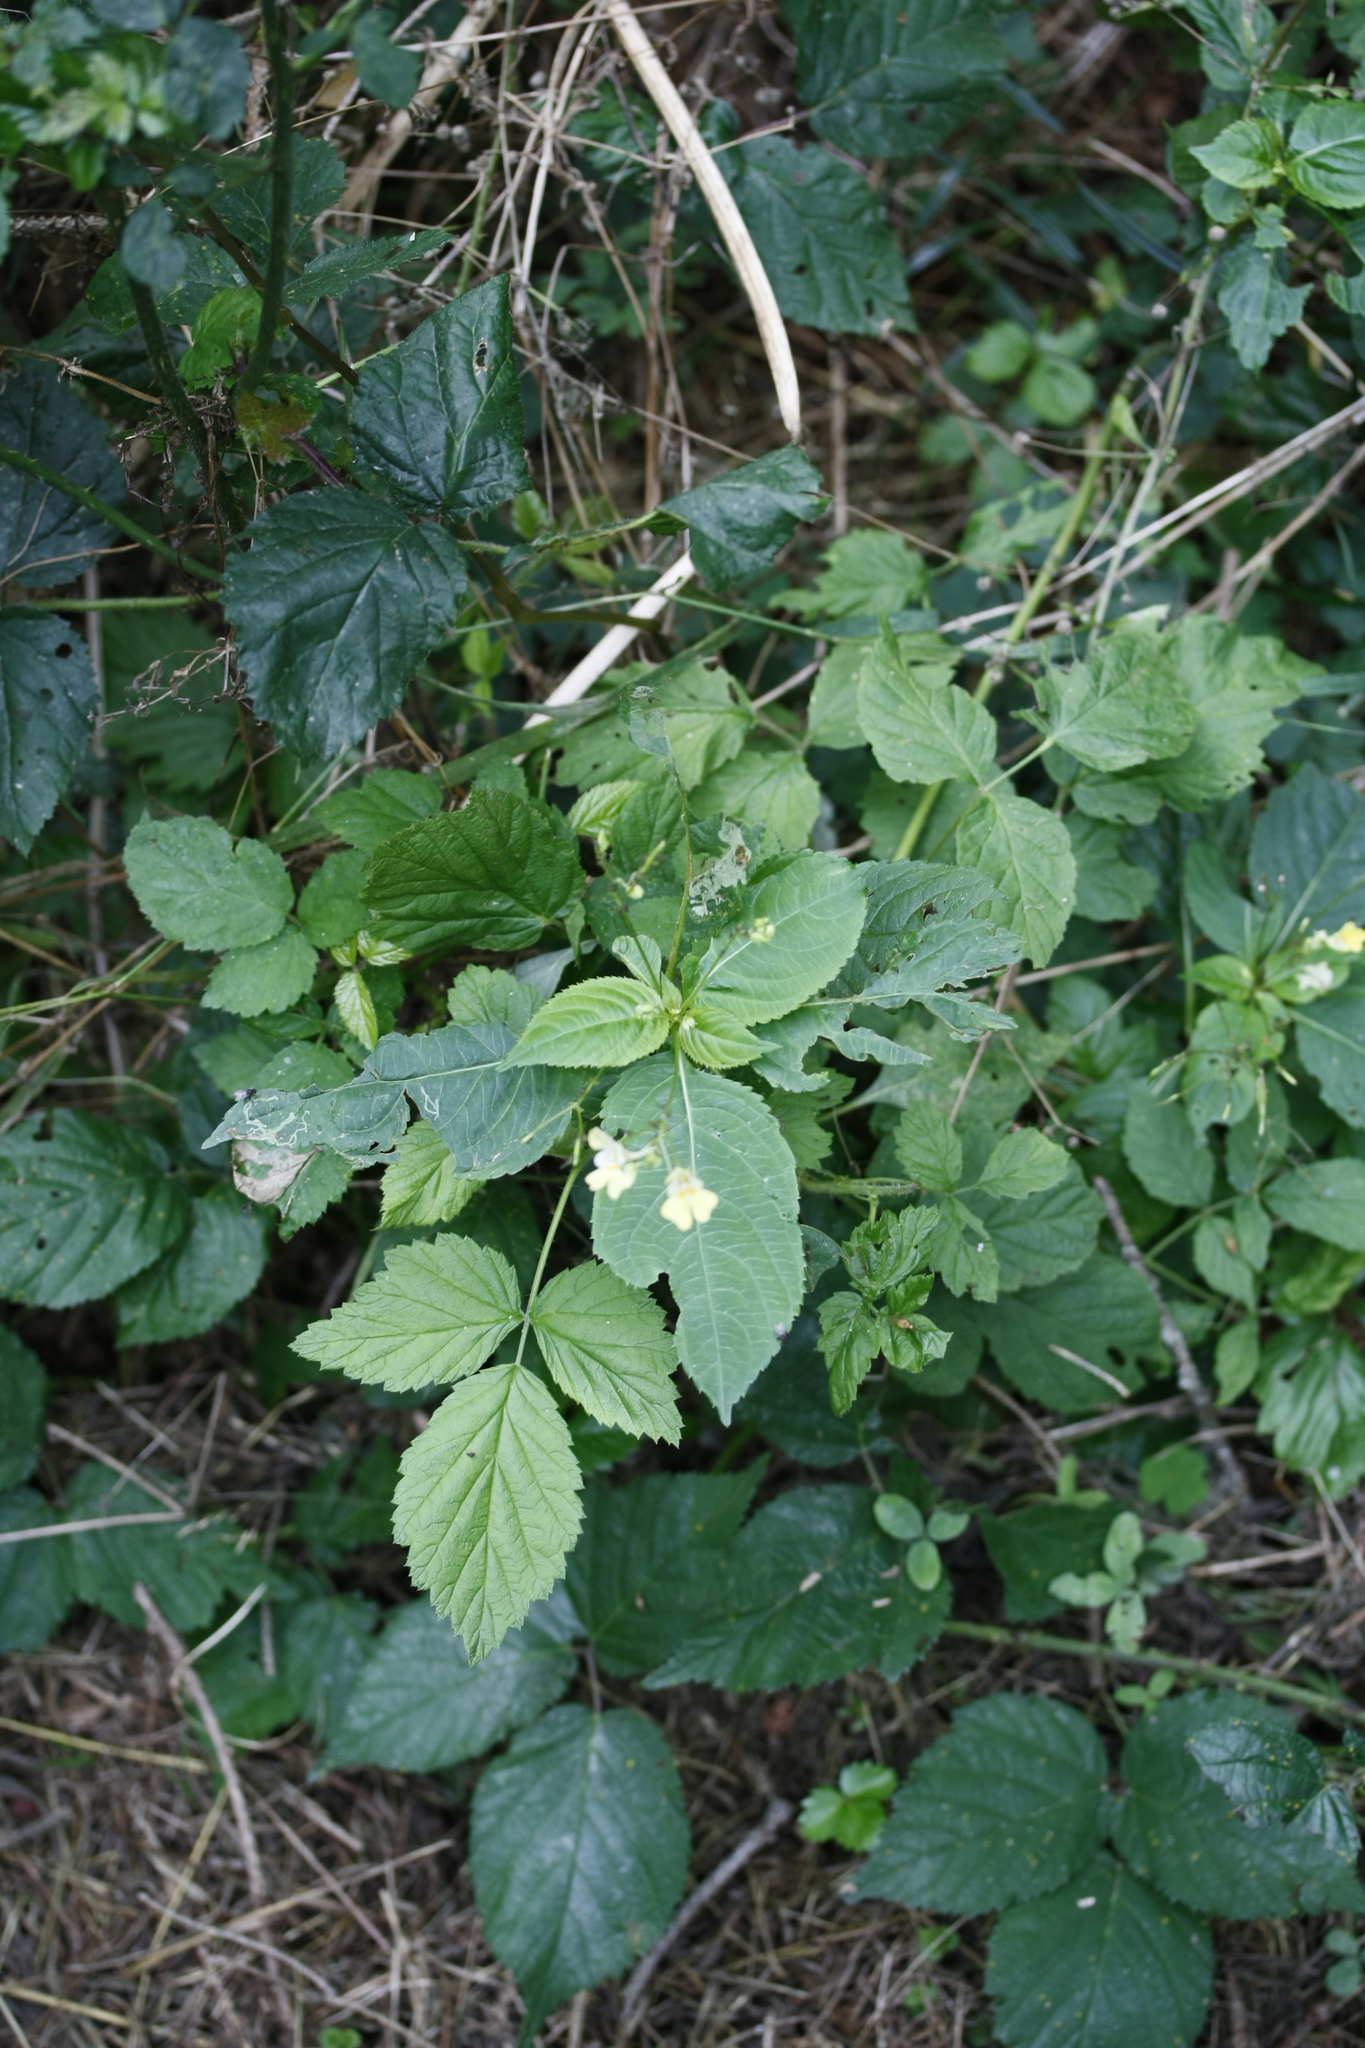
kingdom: Plantae
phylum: Tracheophyta
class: Magnoliopsida
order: Ericales
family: Balsaminaceae
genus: Impatiens
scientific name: Impatiens parviflora
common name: Small balsam
